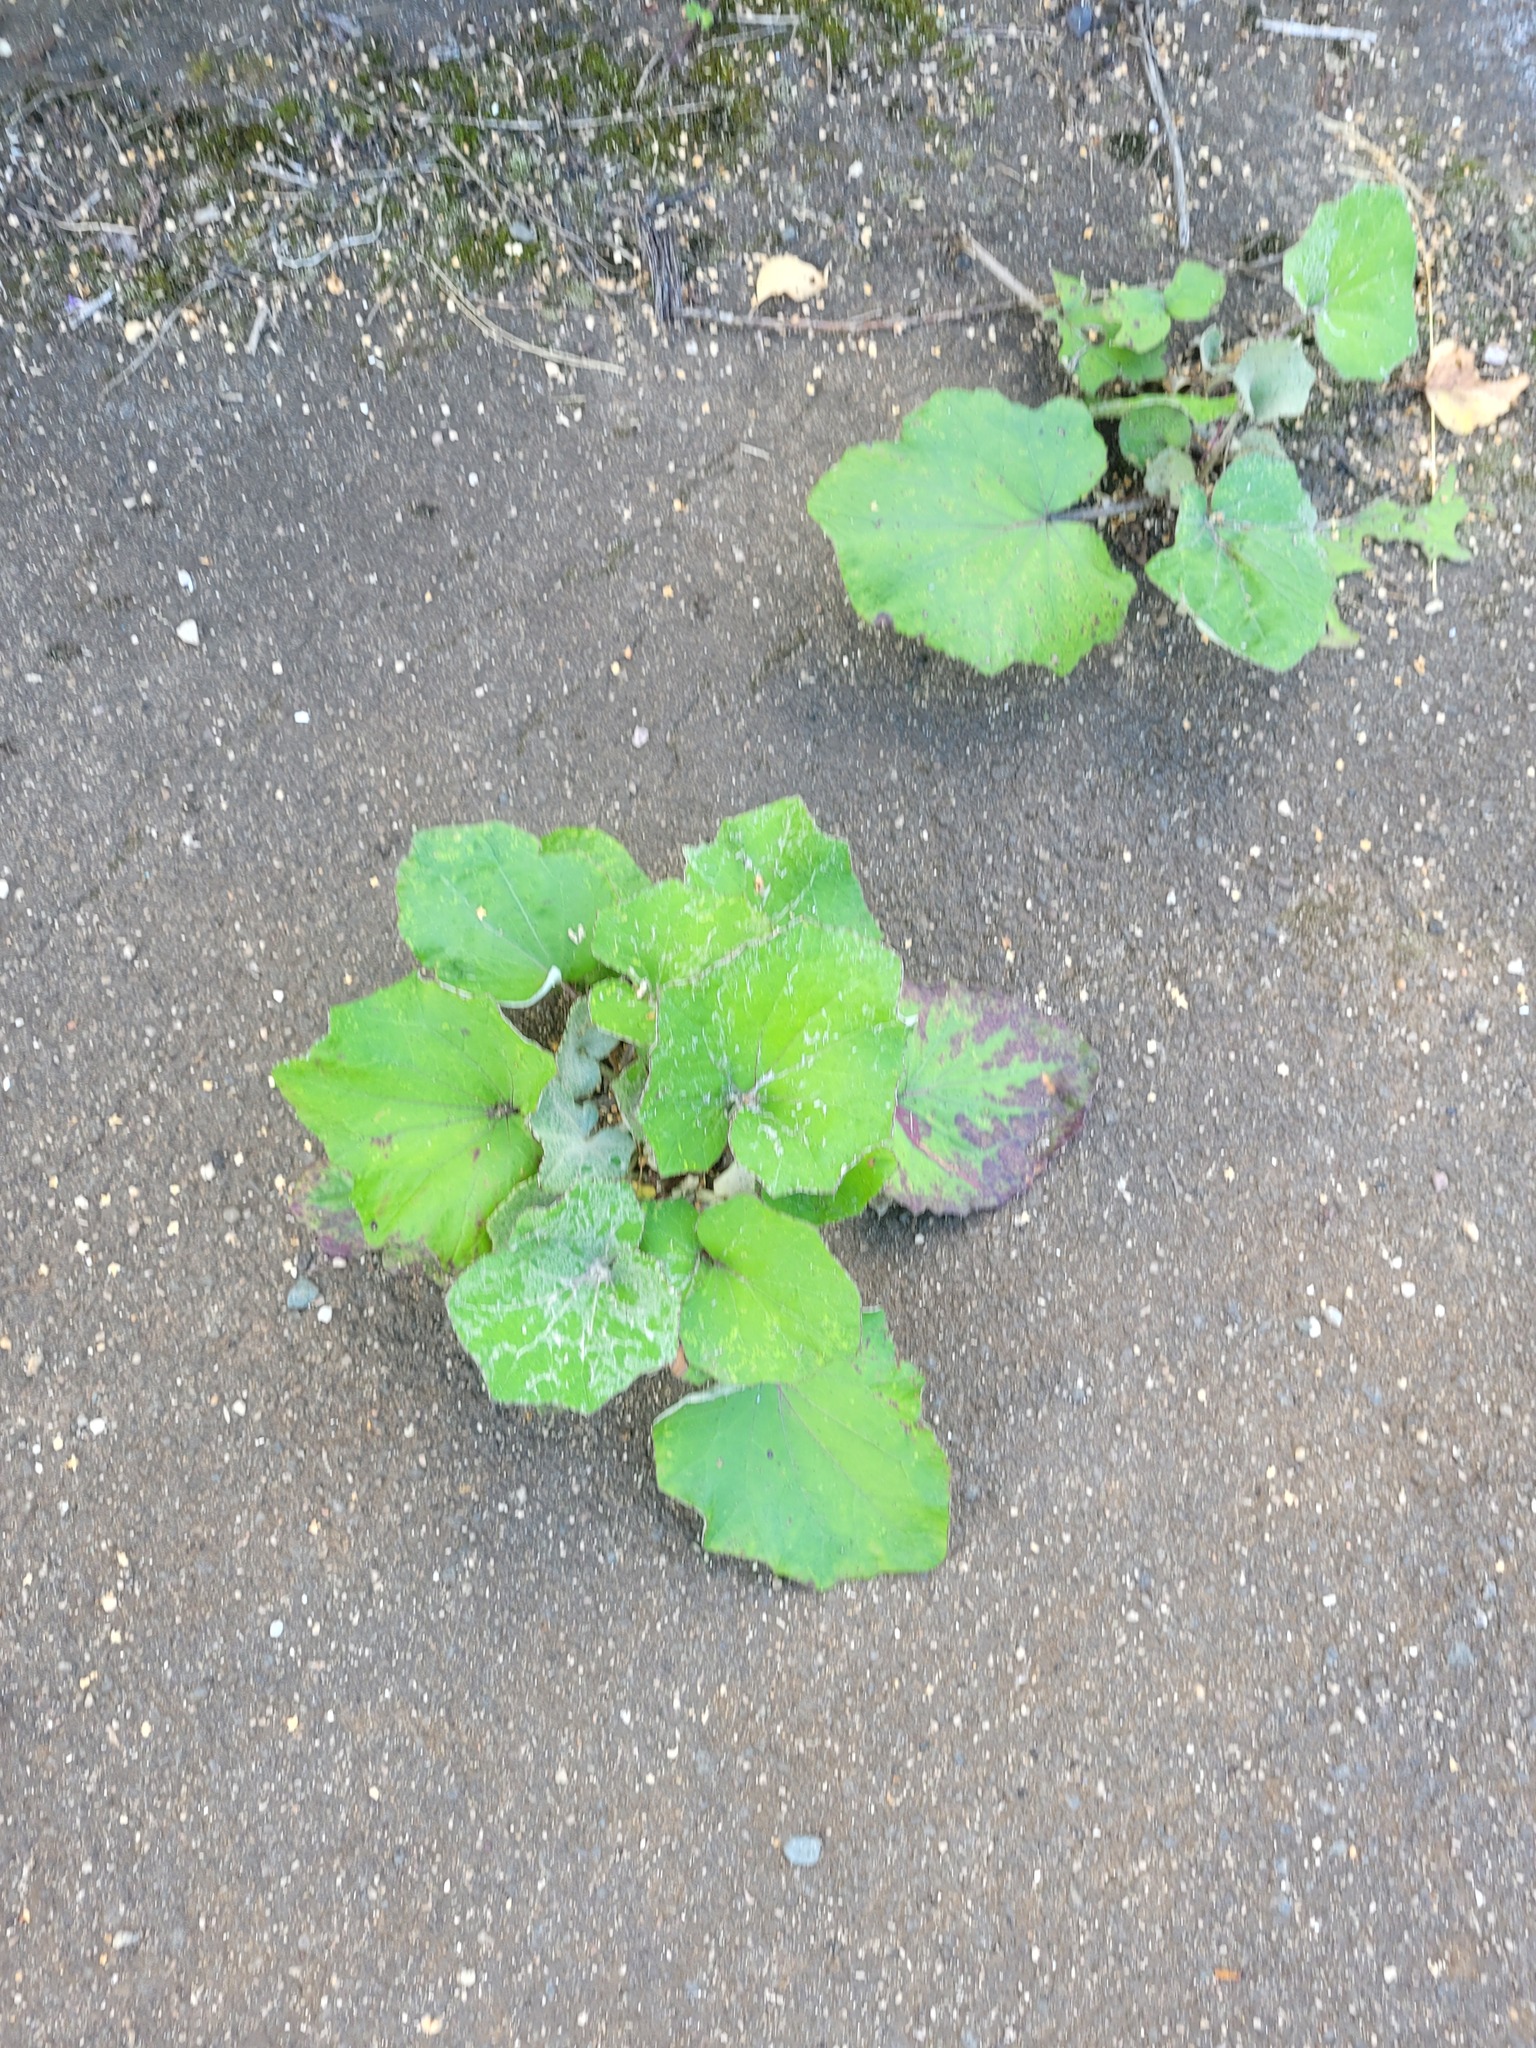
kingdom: Plantae
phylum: Tracheophyta
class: Magnoliopsida
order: Asterales
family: Asteraceae
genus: Tussilago
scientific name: Tussilago farfara
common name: Coltsfoot
